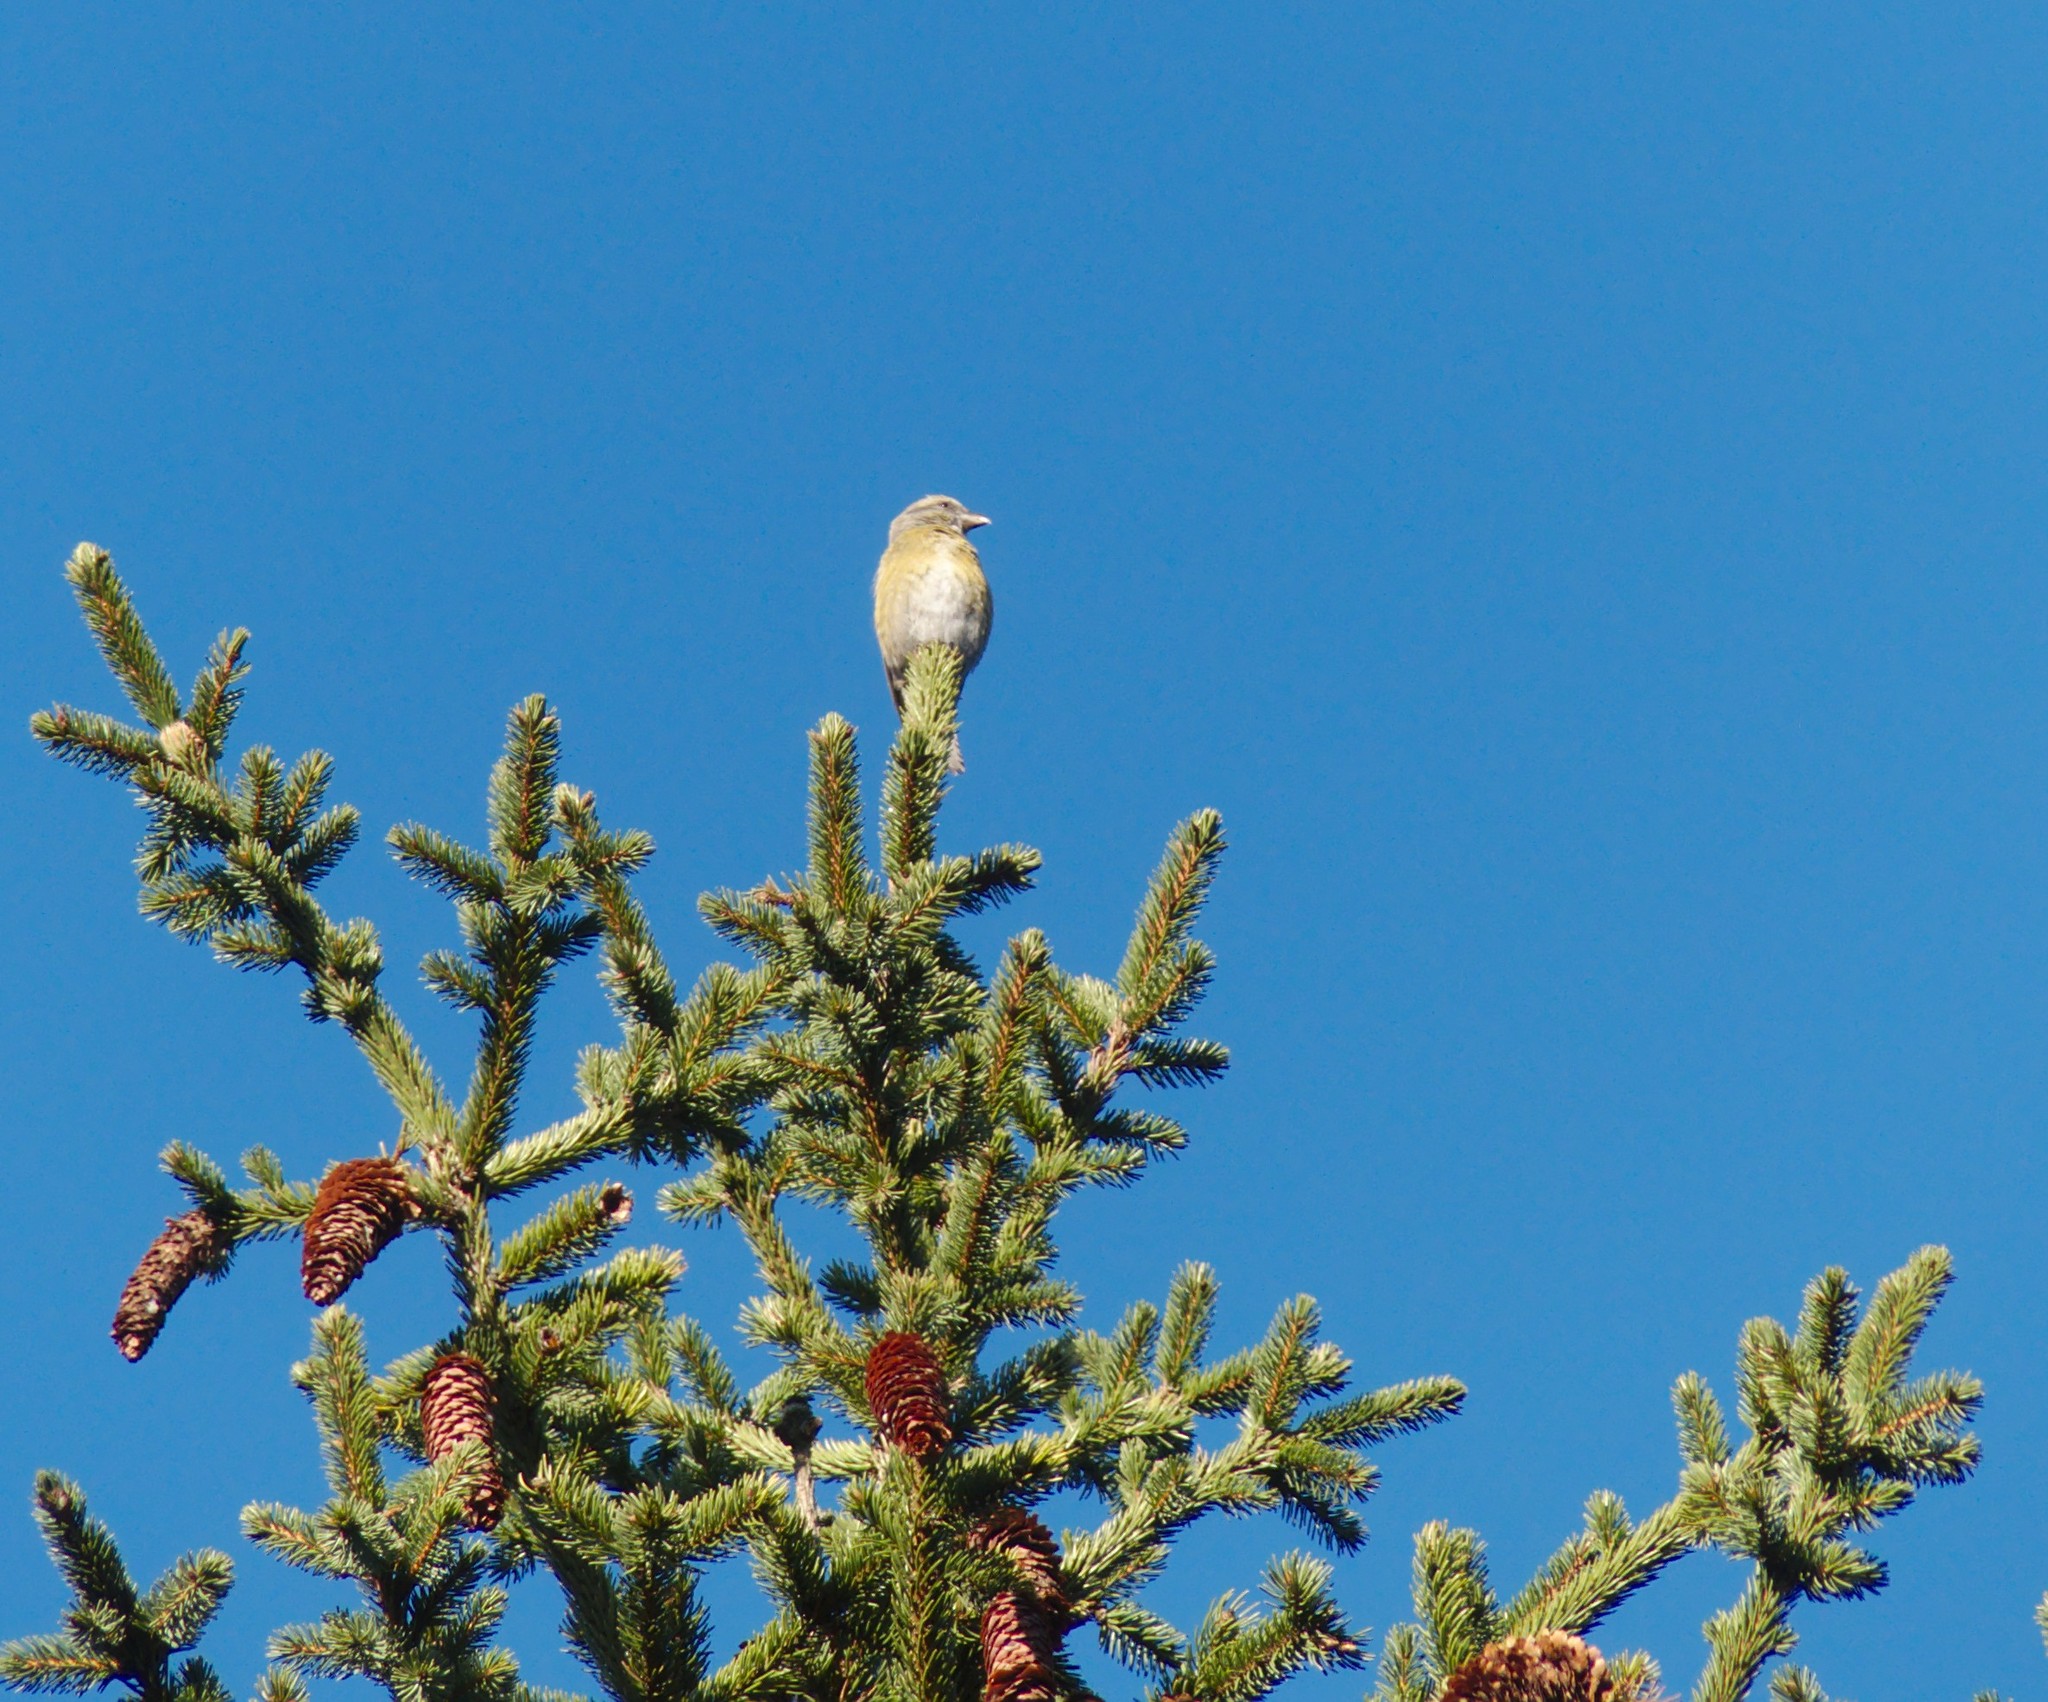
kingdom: Animalia
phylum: Chordata
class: Aves
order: Passeriformes
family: Fringillidae
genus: Loxia
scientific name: Loxia
